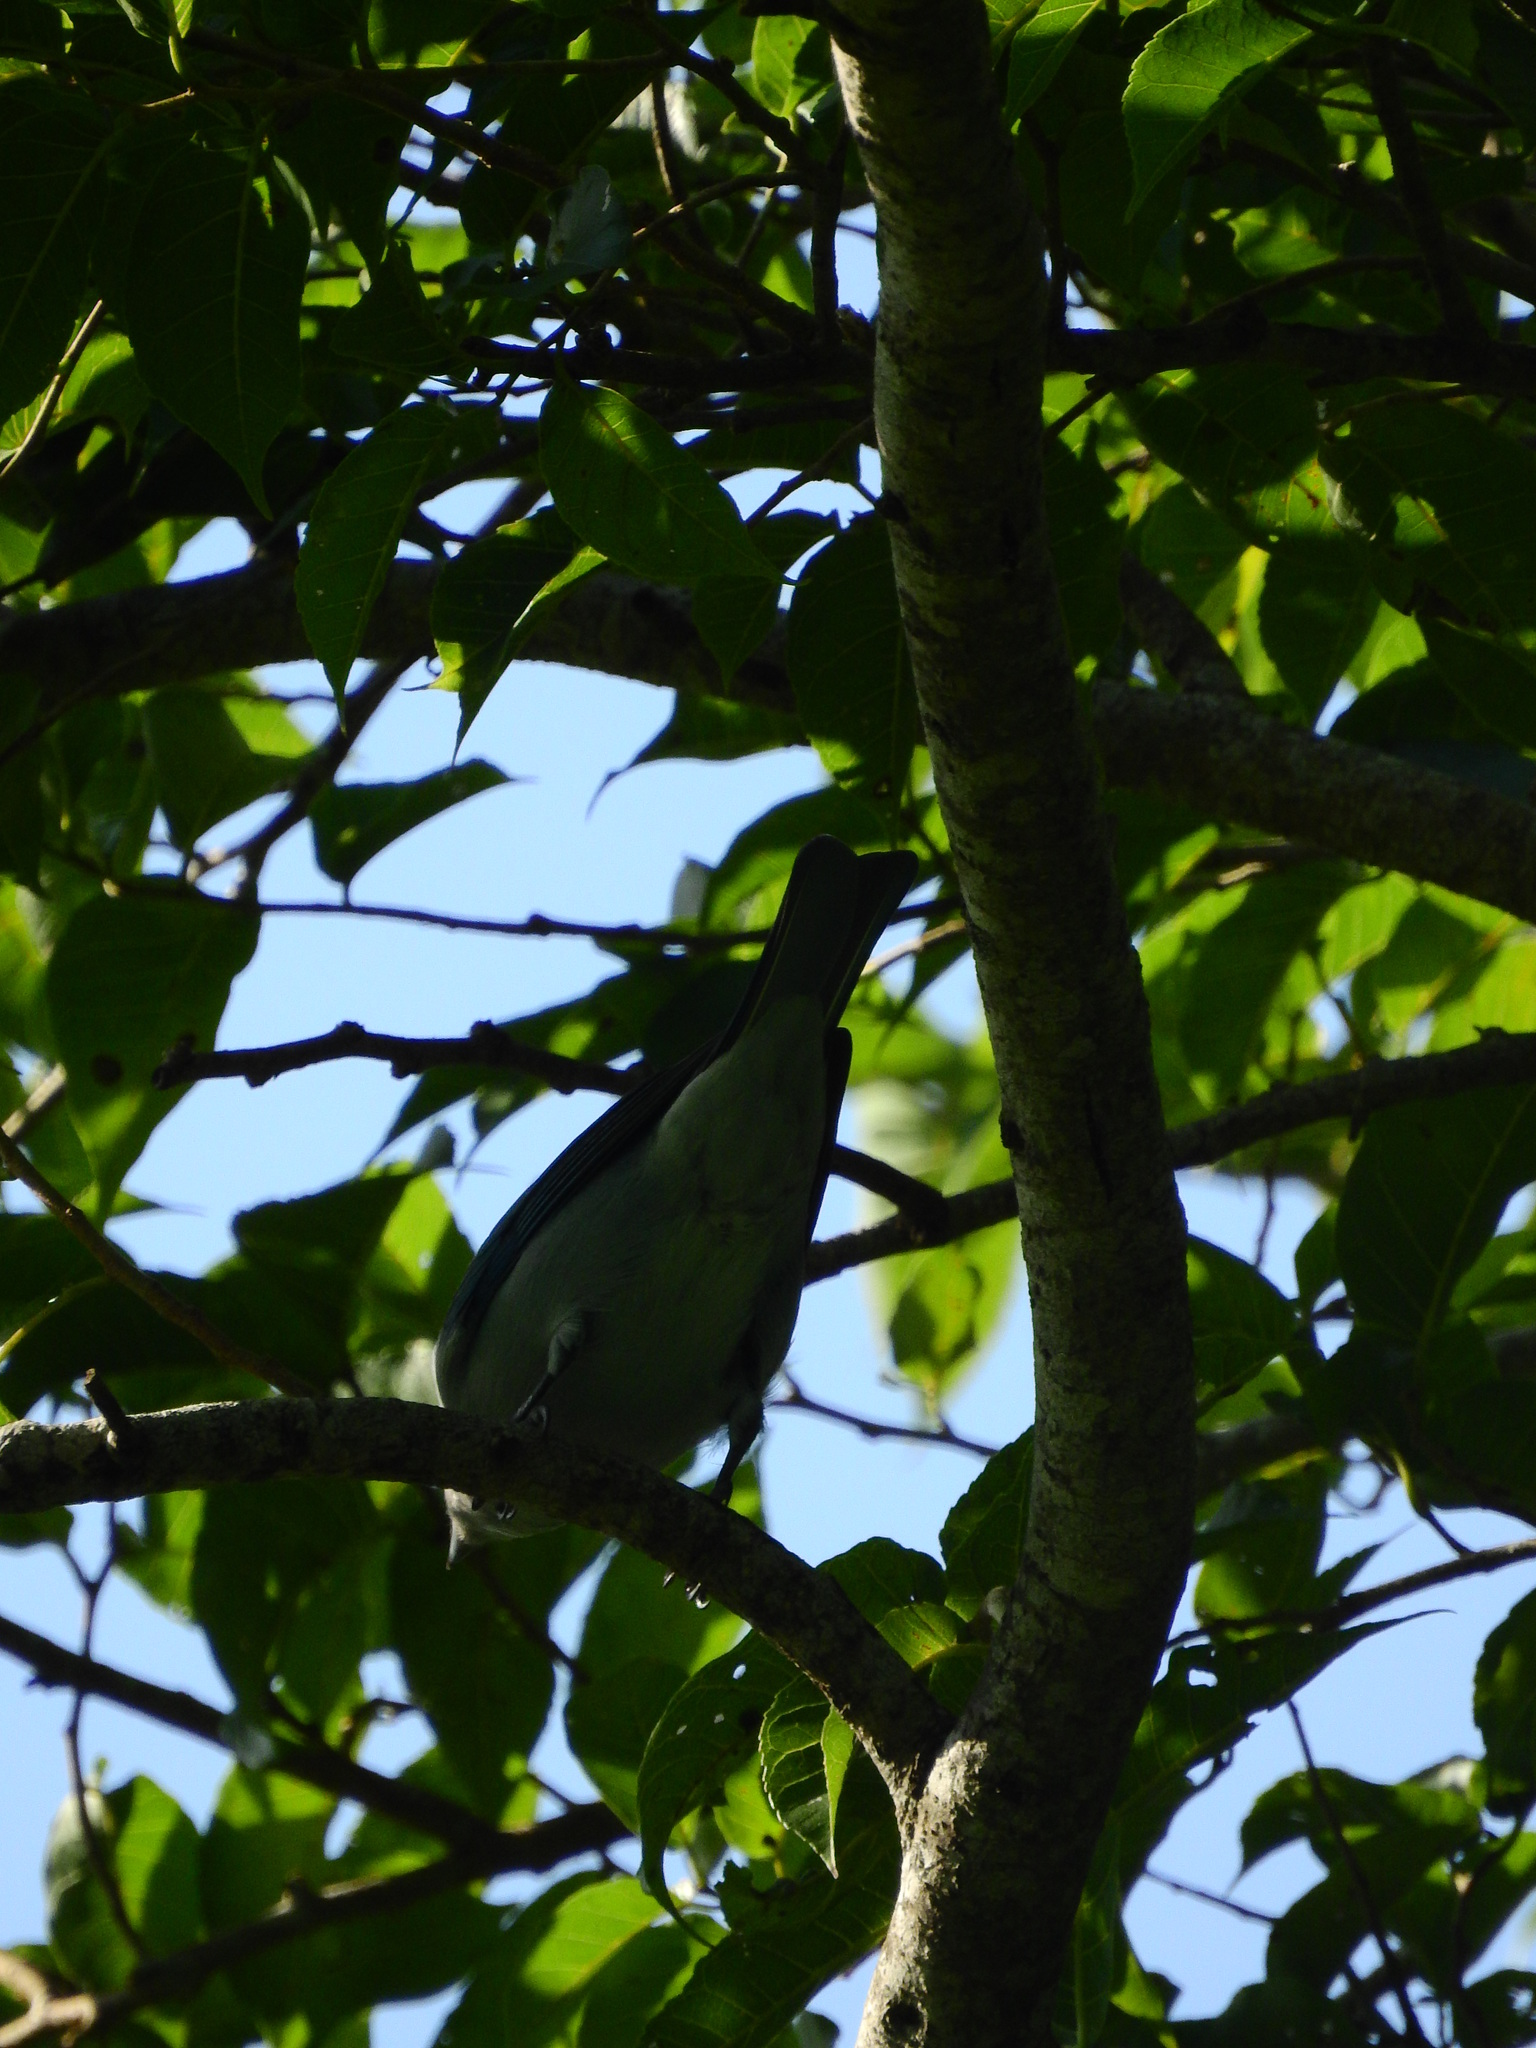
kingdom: Animalia
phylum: Chordata
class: Aves
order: Passeriformes
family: Thraupidae
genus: Thraupis
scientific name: Thraupis episcopus
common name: Blue-grey tanager
